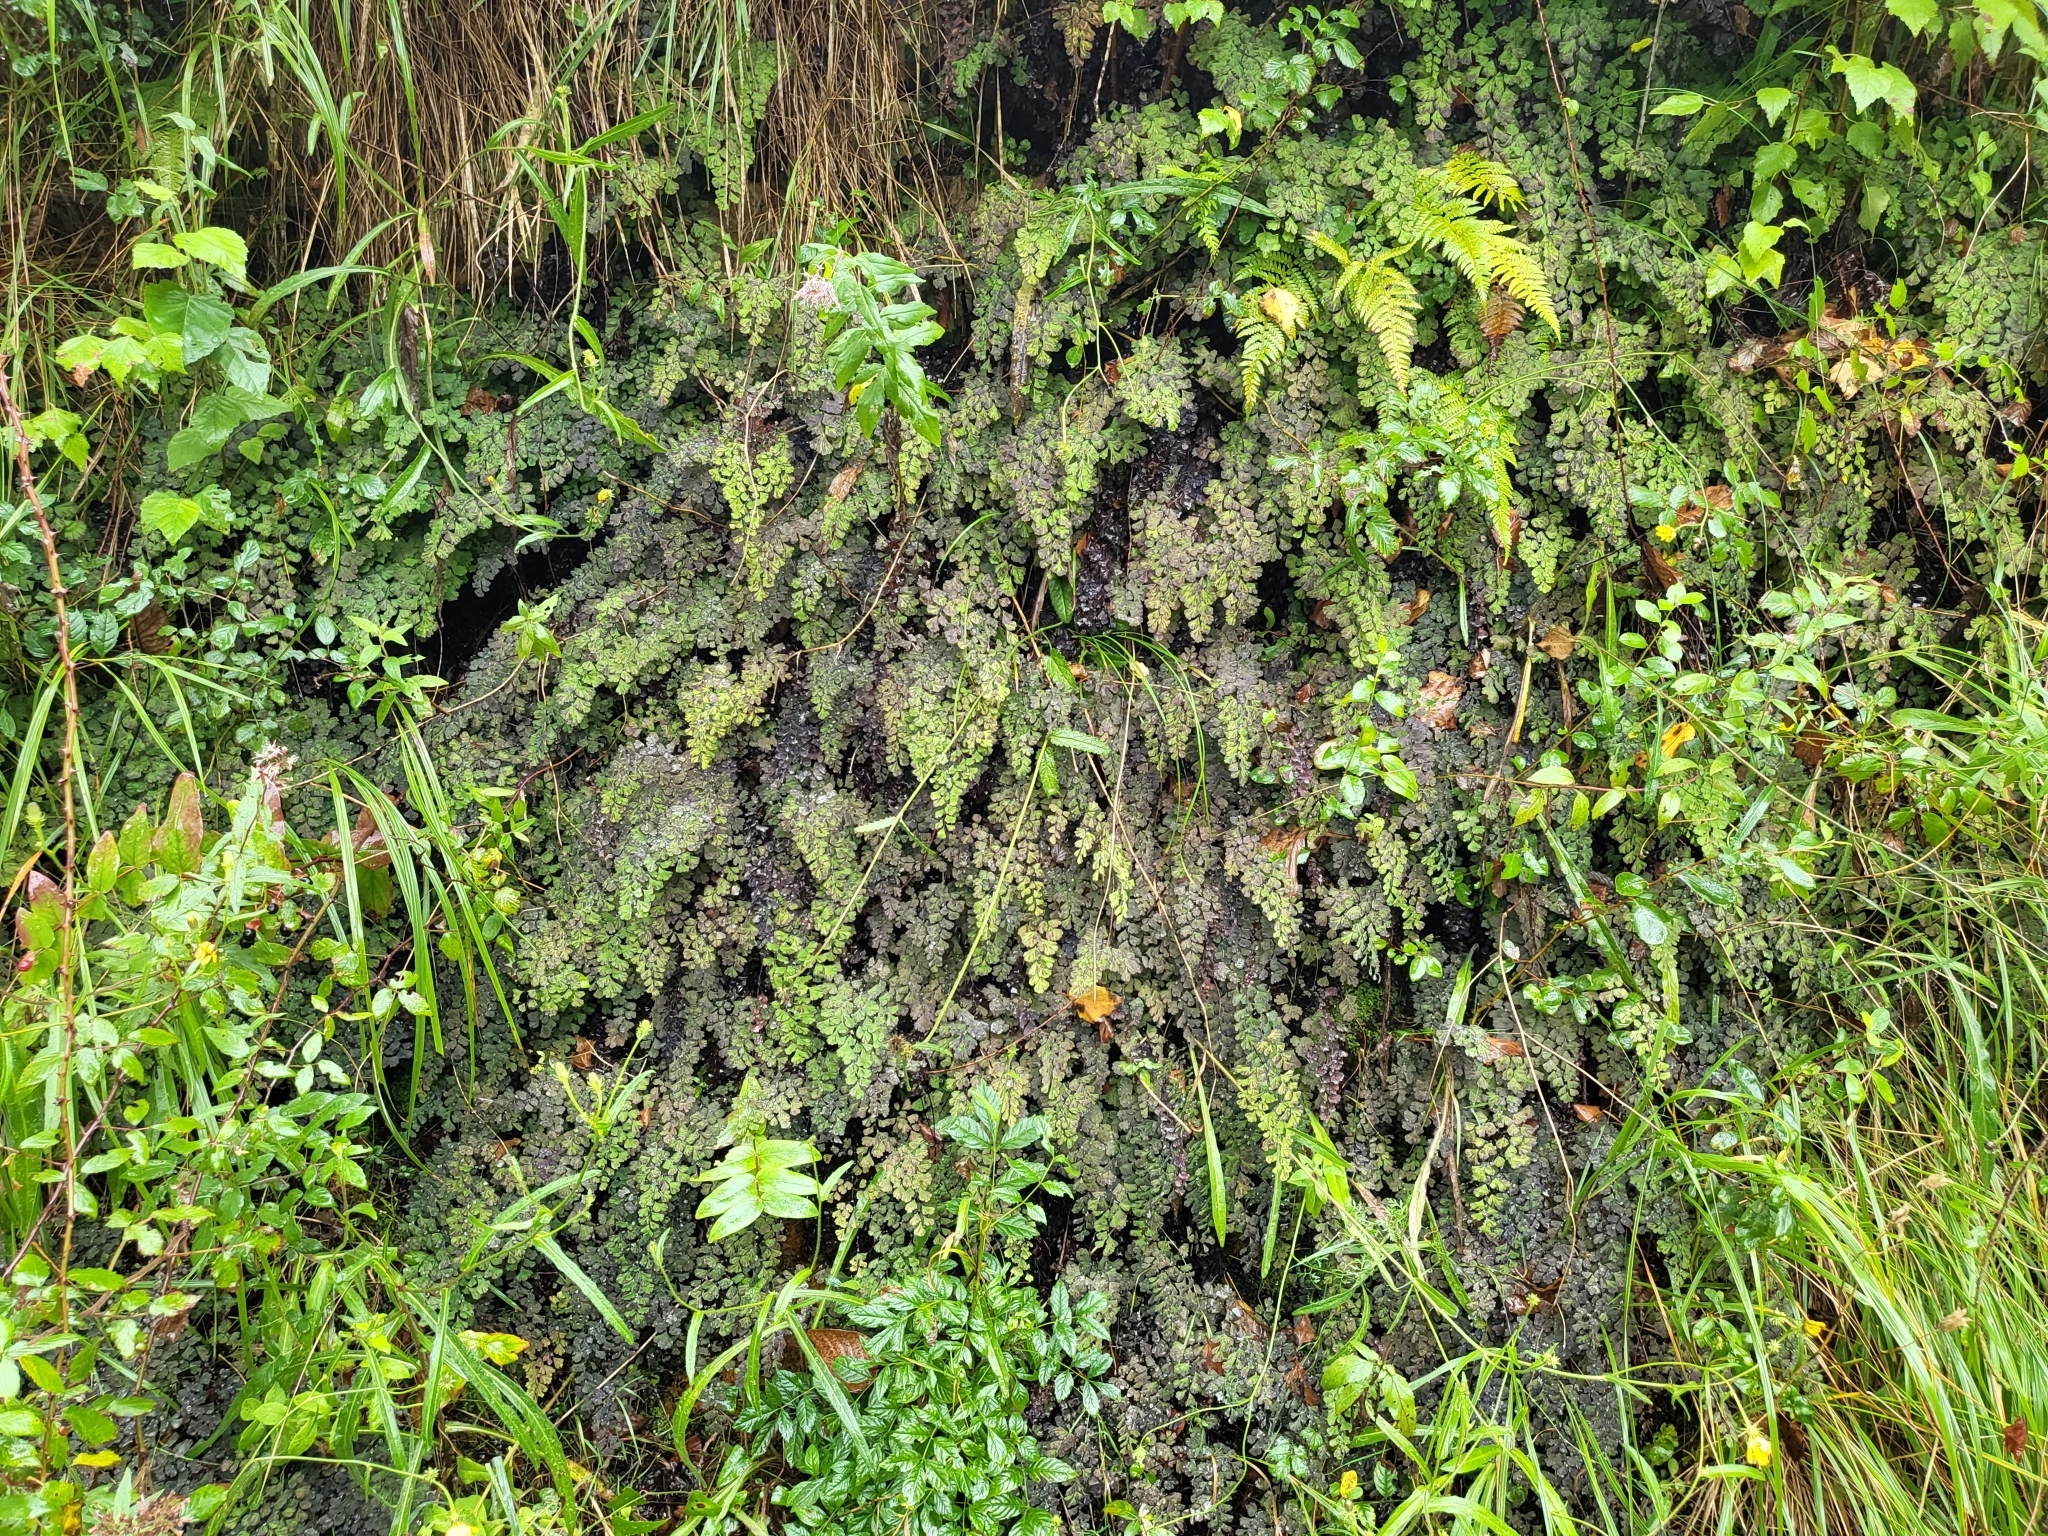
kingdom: Plantae
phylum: Tracheophyta
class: Polypodiopsida
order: Polypodiales
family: Pteridaceae
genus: Adiantum
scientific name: Adiantum capillus-veneris
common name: Maidenhair fern
